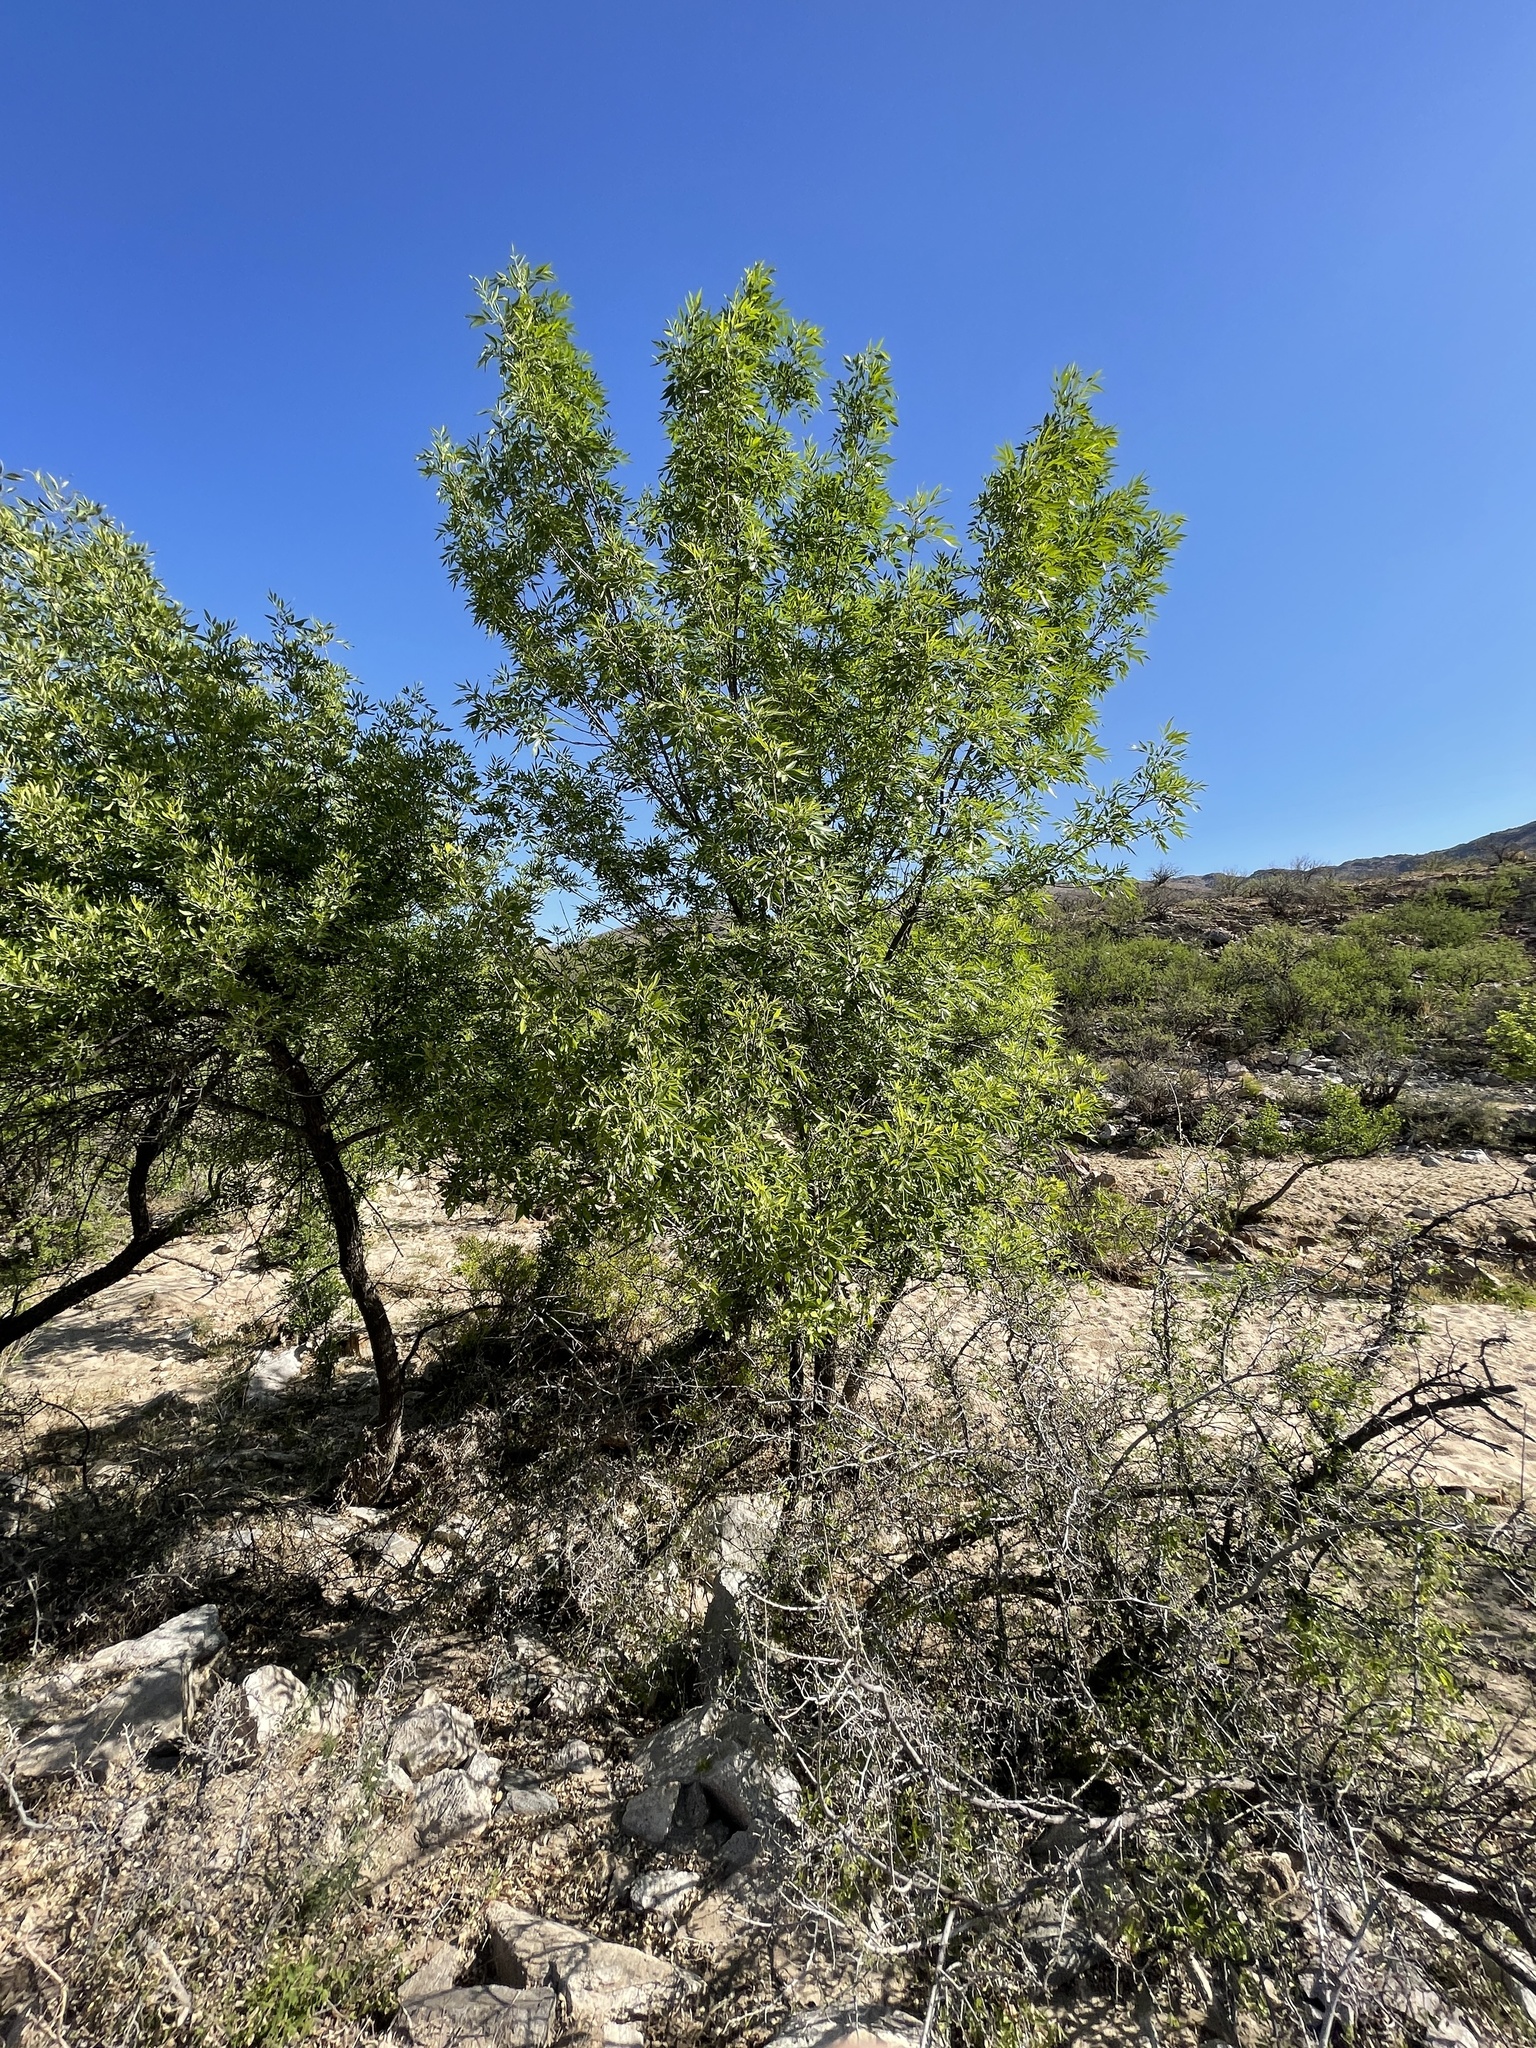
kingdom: Plantae
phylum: Tracheophyta
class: Magnoliopsida
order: Lamiales
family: Oleaceae
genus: Fraxinus
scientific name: Fraxinus velutina
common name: Arizon ash
